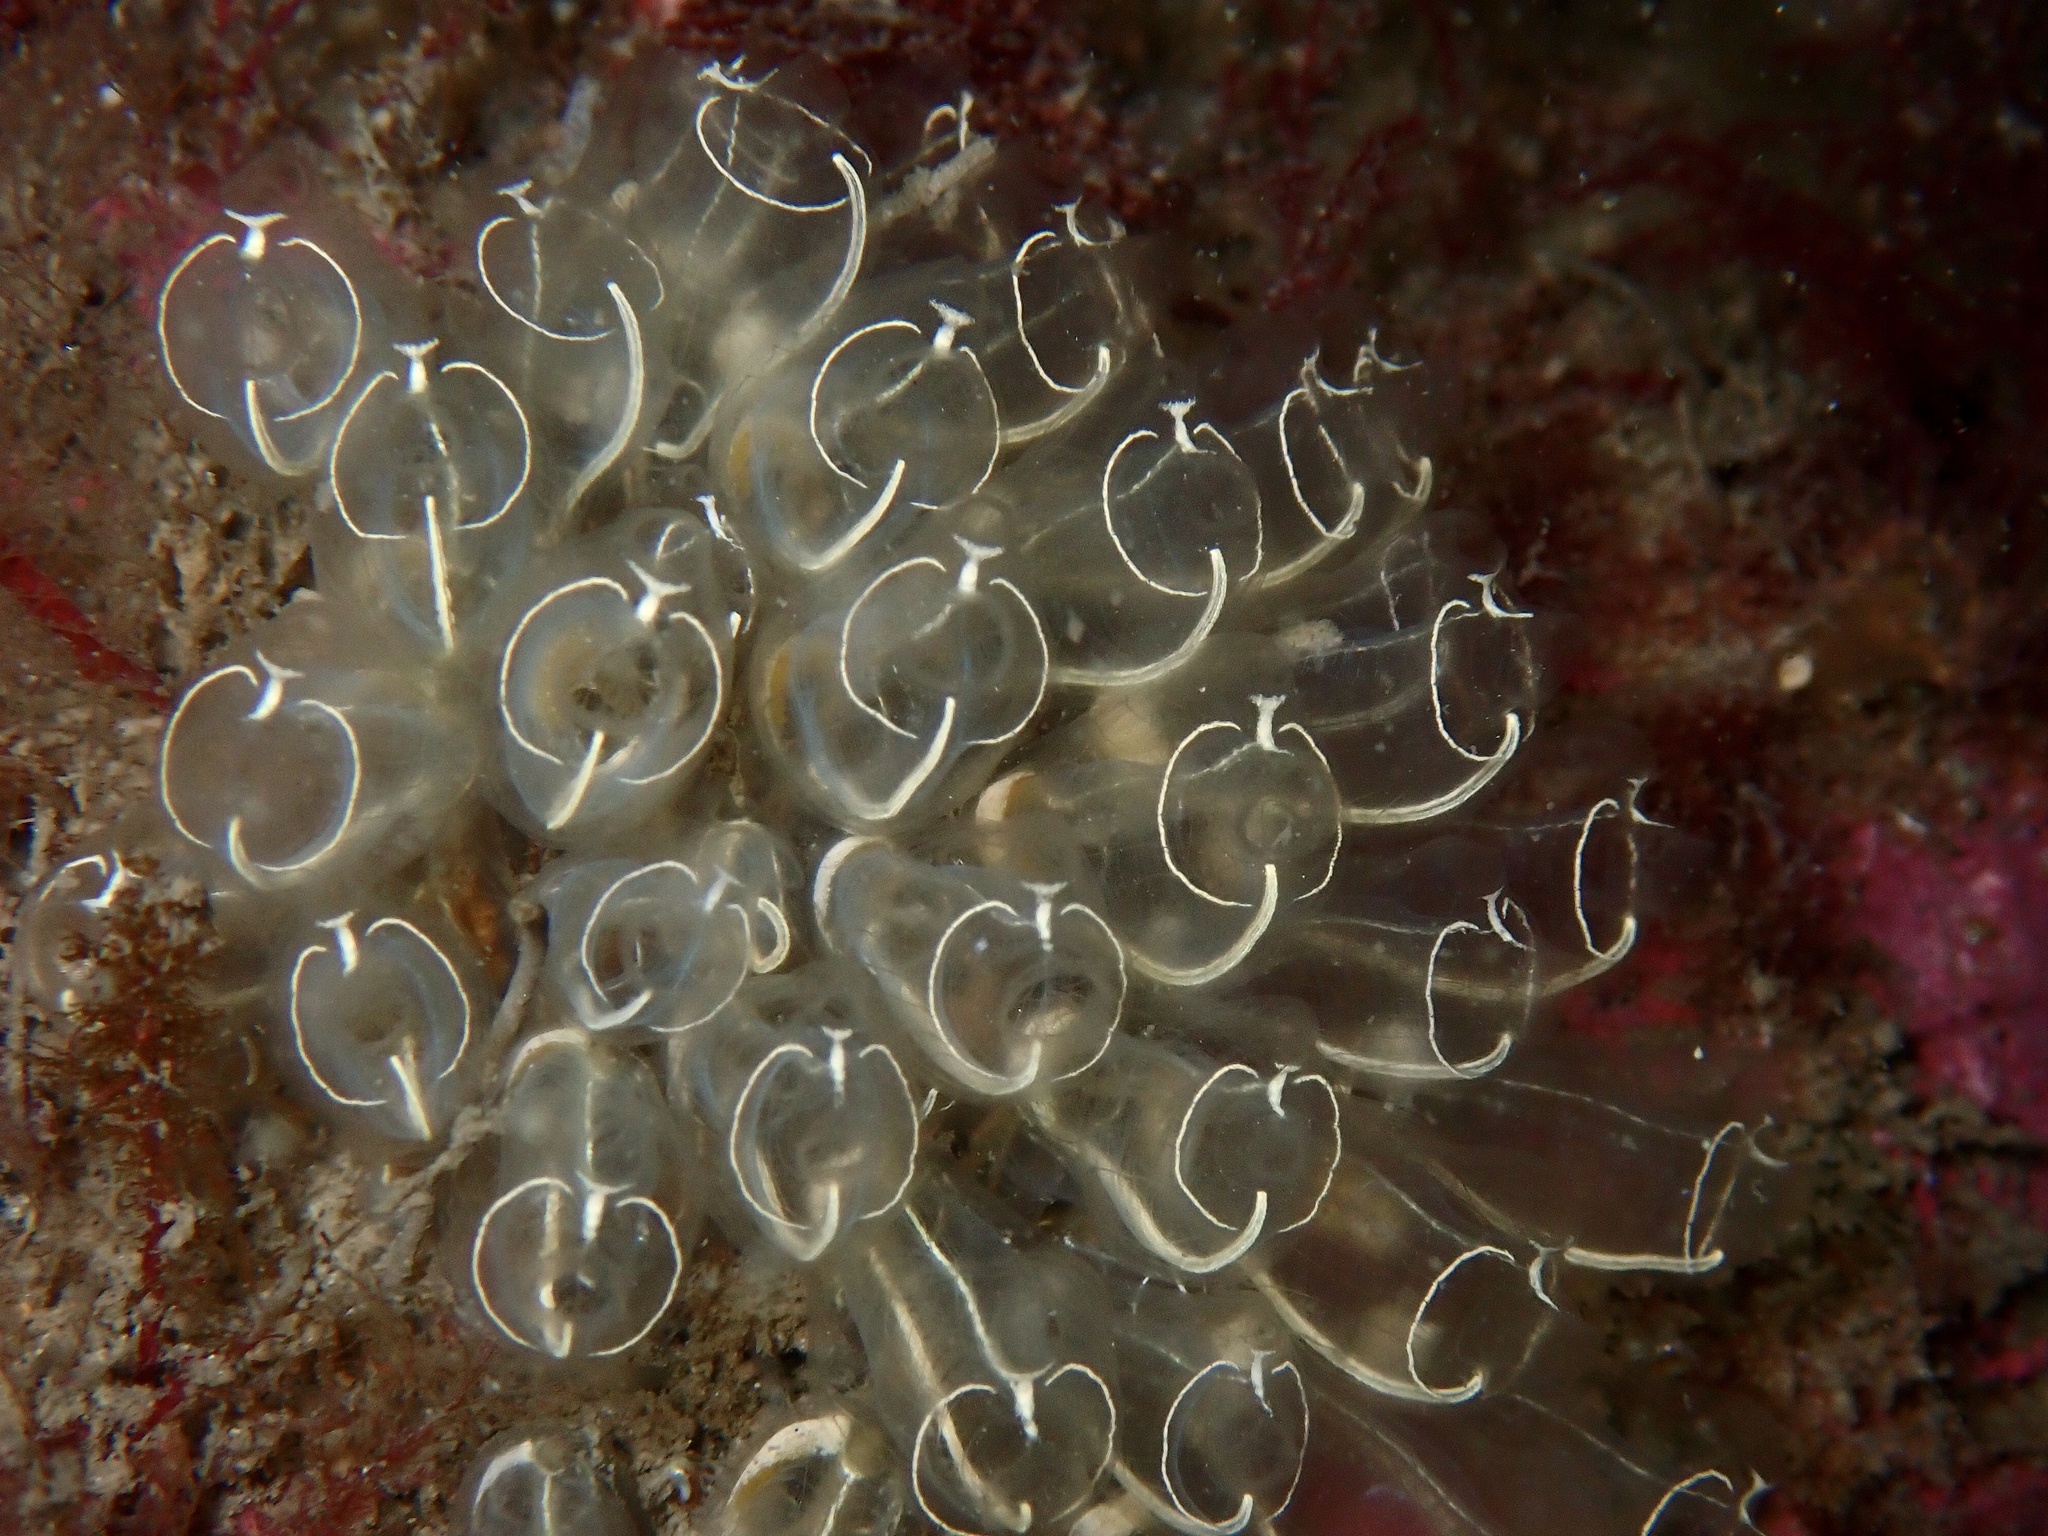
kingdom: Animalia
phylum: Chordata
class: Ascidiacea
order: Aplousobranchia
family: Clavelinidae
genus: Clavelina
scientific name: Clavelina lepadiformis
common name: Light bulb tunicate
